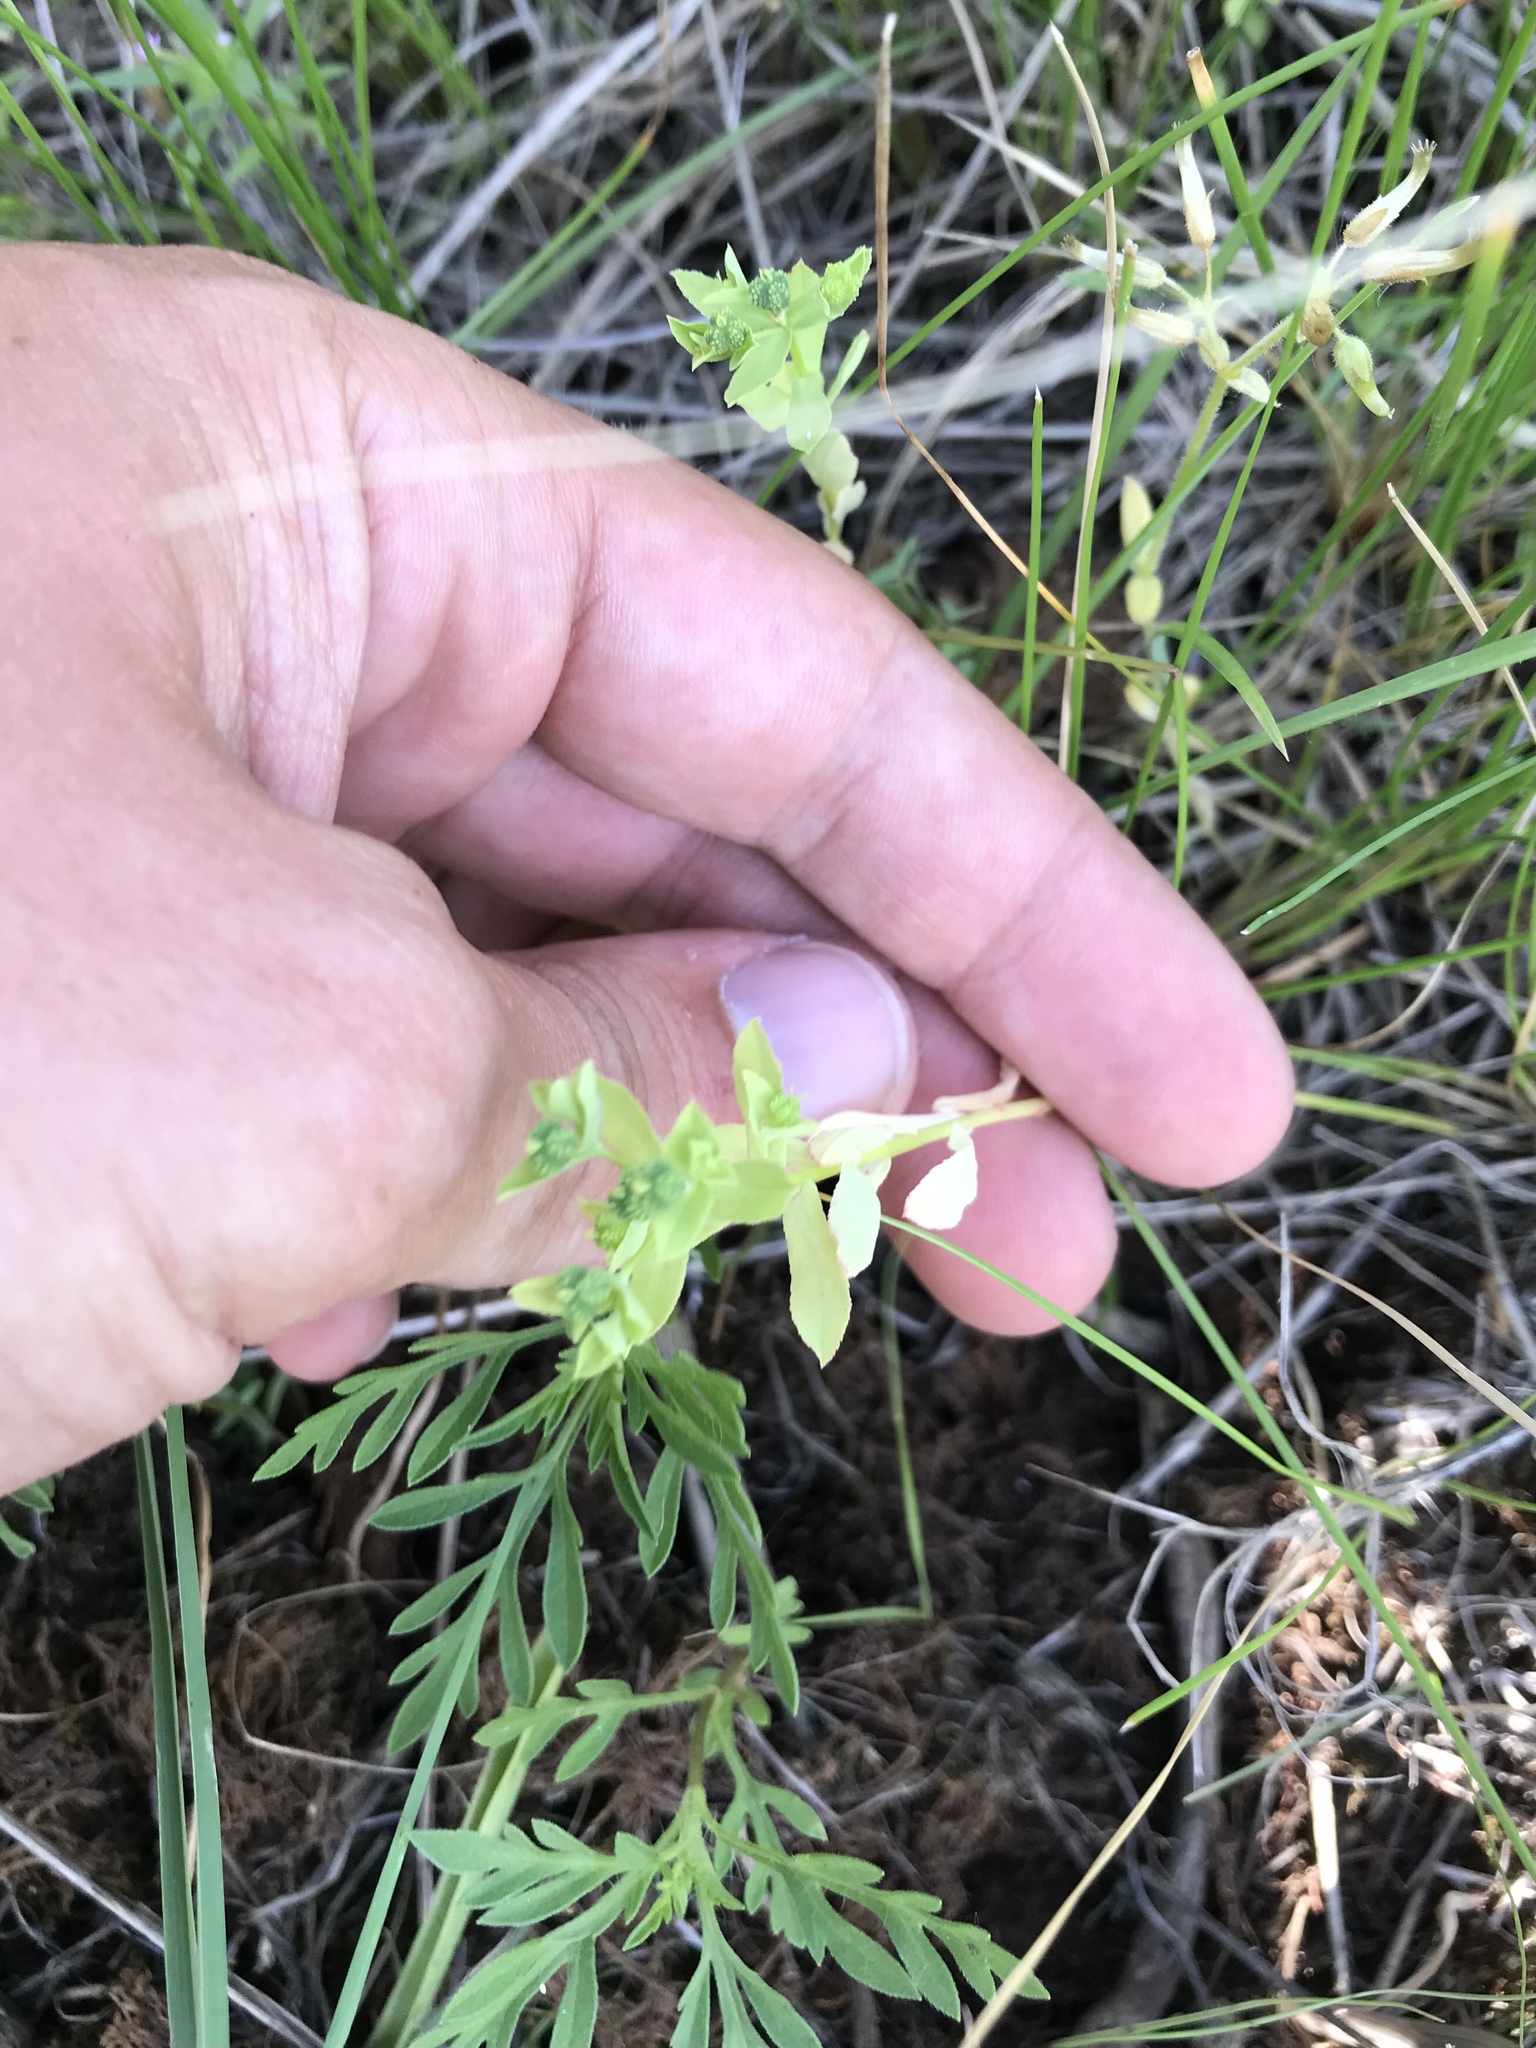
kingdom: Plantae
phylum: Tracheophyta
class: Magnoliopsida
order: Malpighiales
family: Euphorbiaceae
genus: Euphorbia
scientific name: Euphorbia spathulata
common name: Blunt spurge
